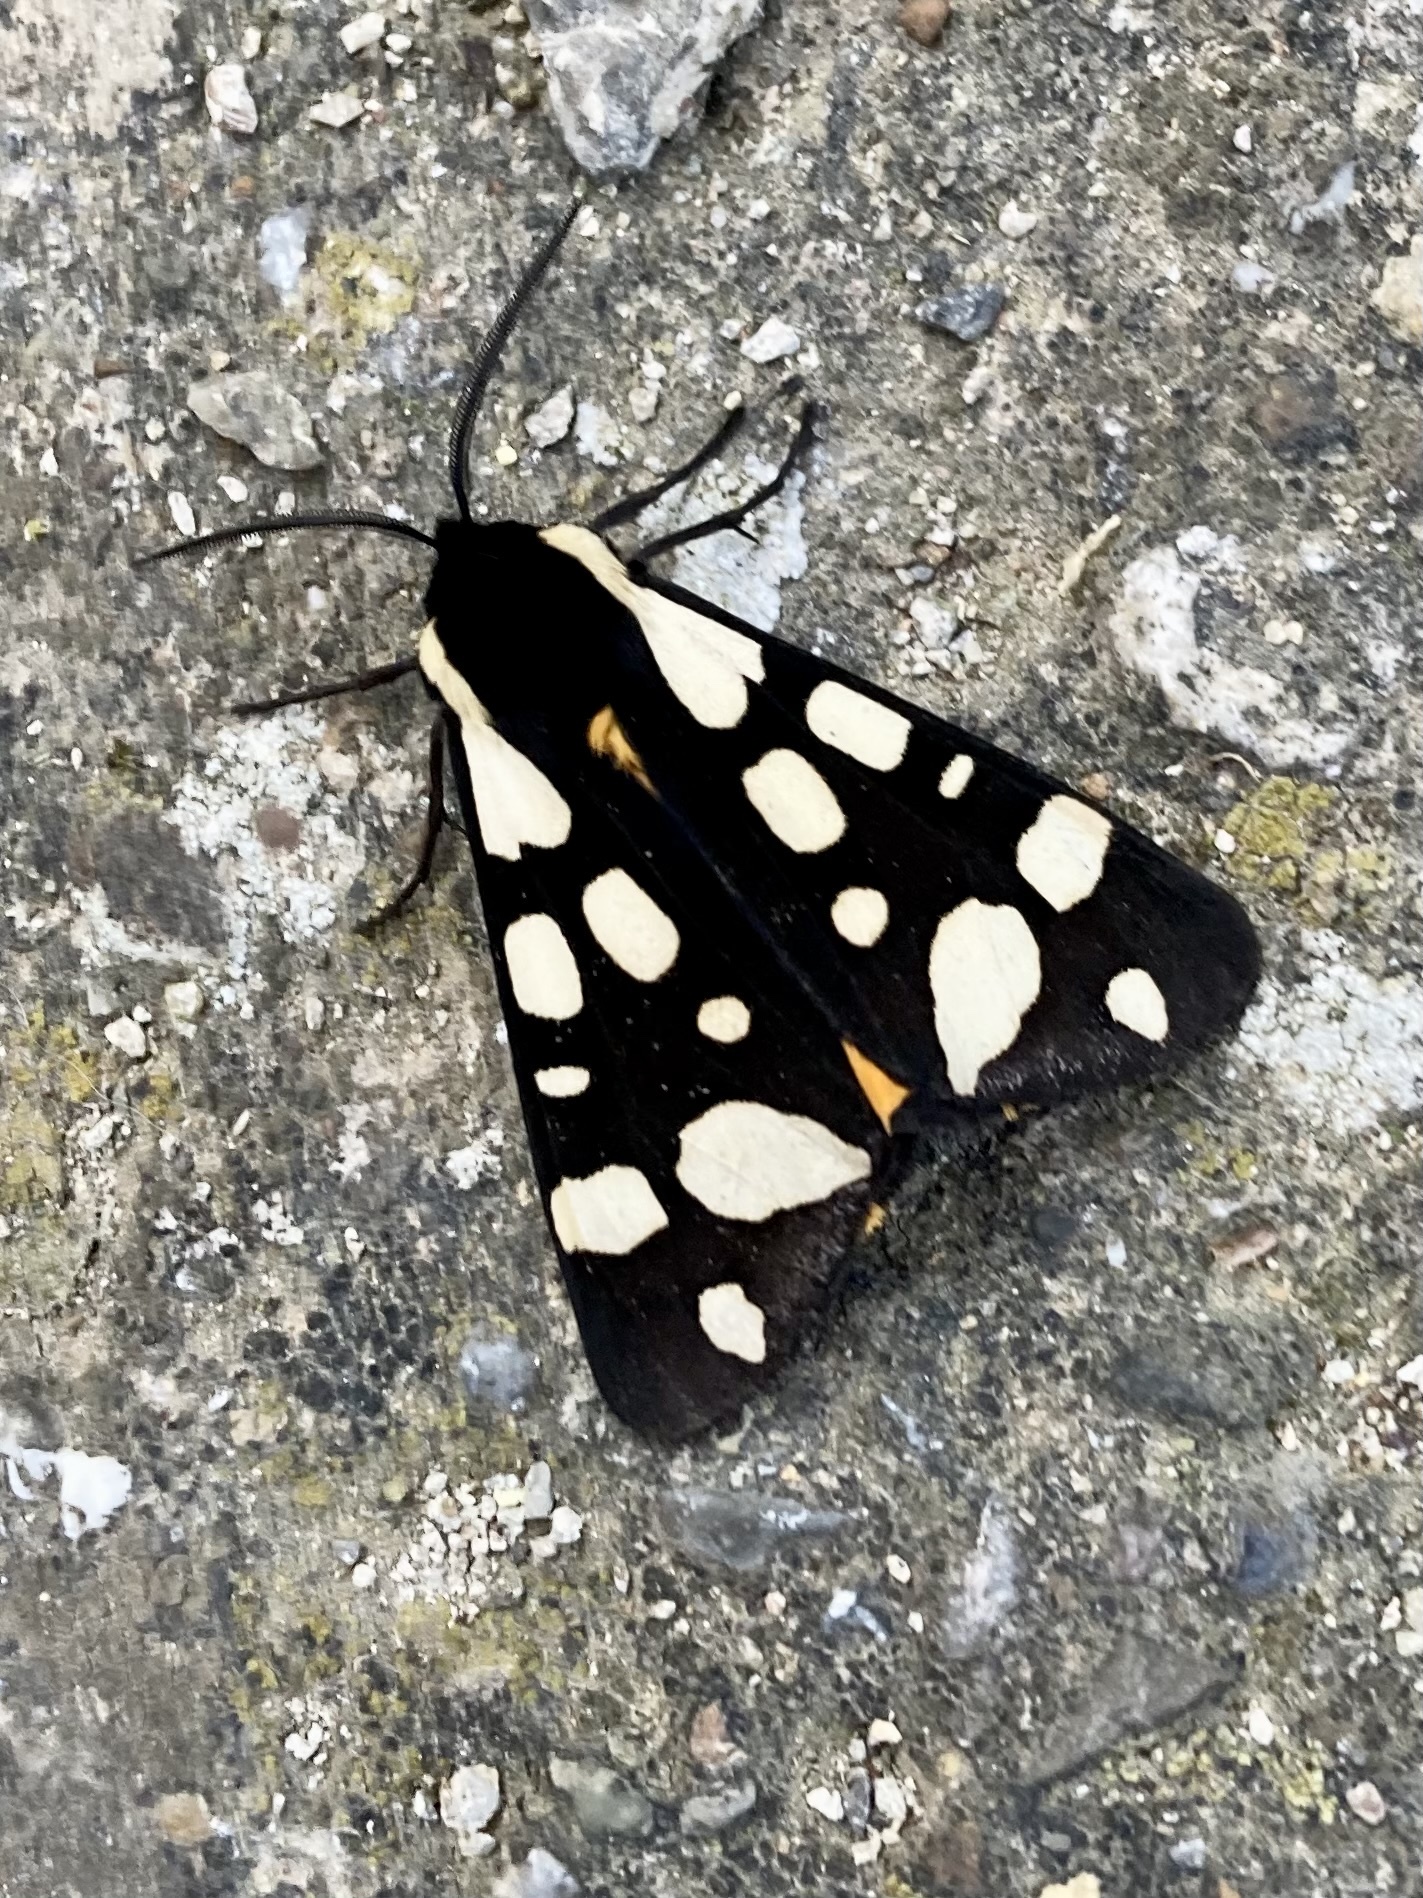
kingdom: Animalia
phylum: Arthropoda
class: Insecta
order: Lepidoptera
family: Erebidae
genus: Epicallia
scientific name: Epicallia villica
